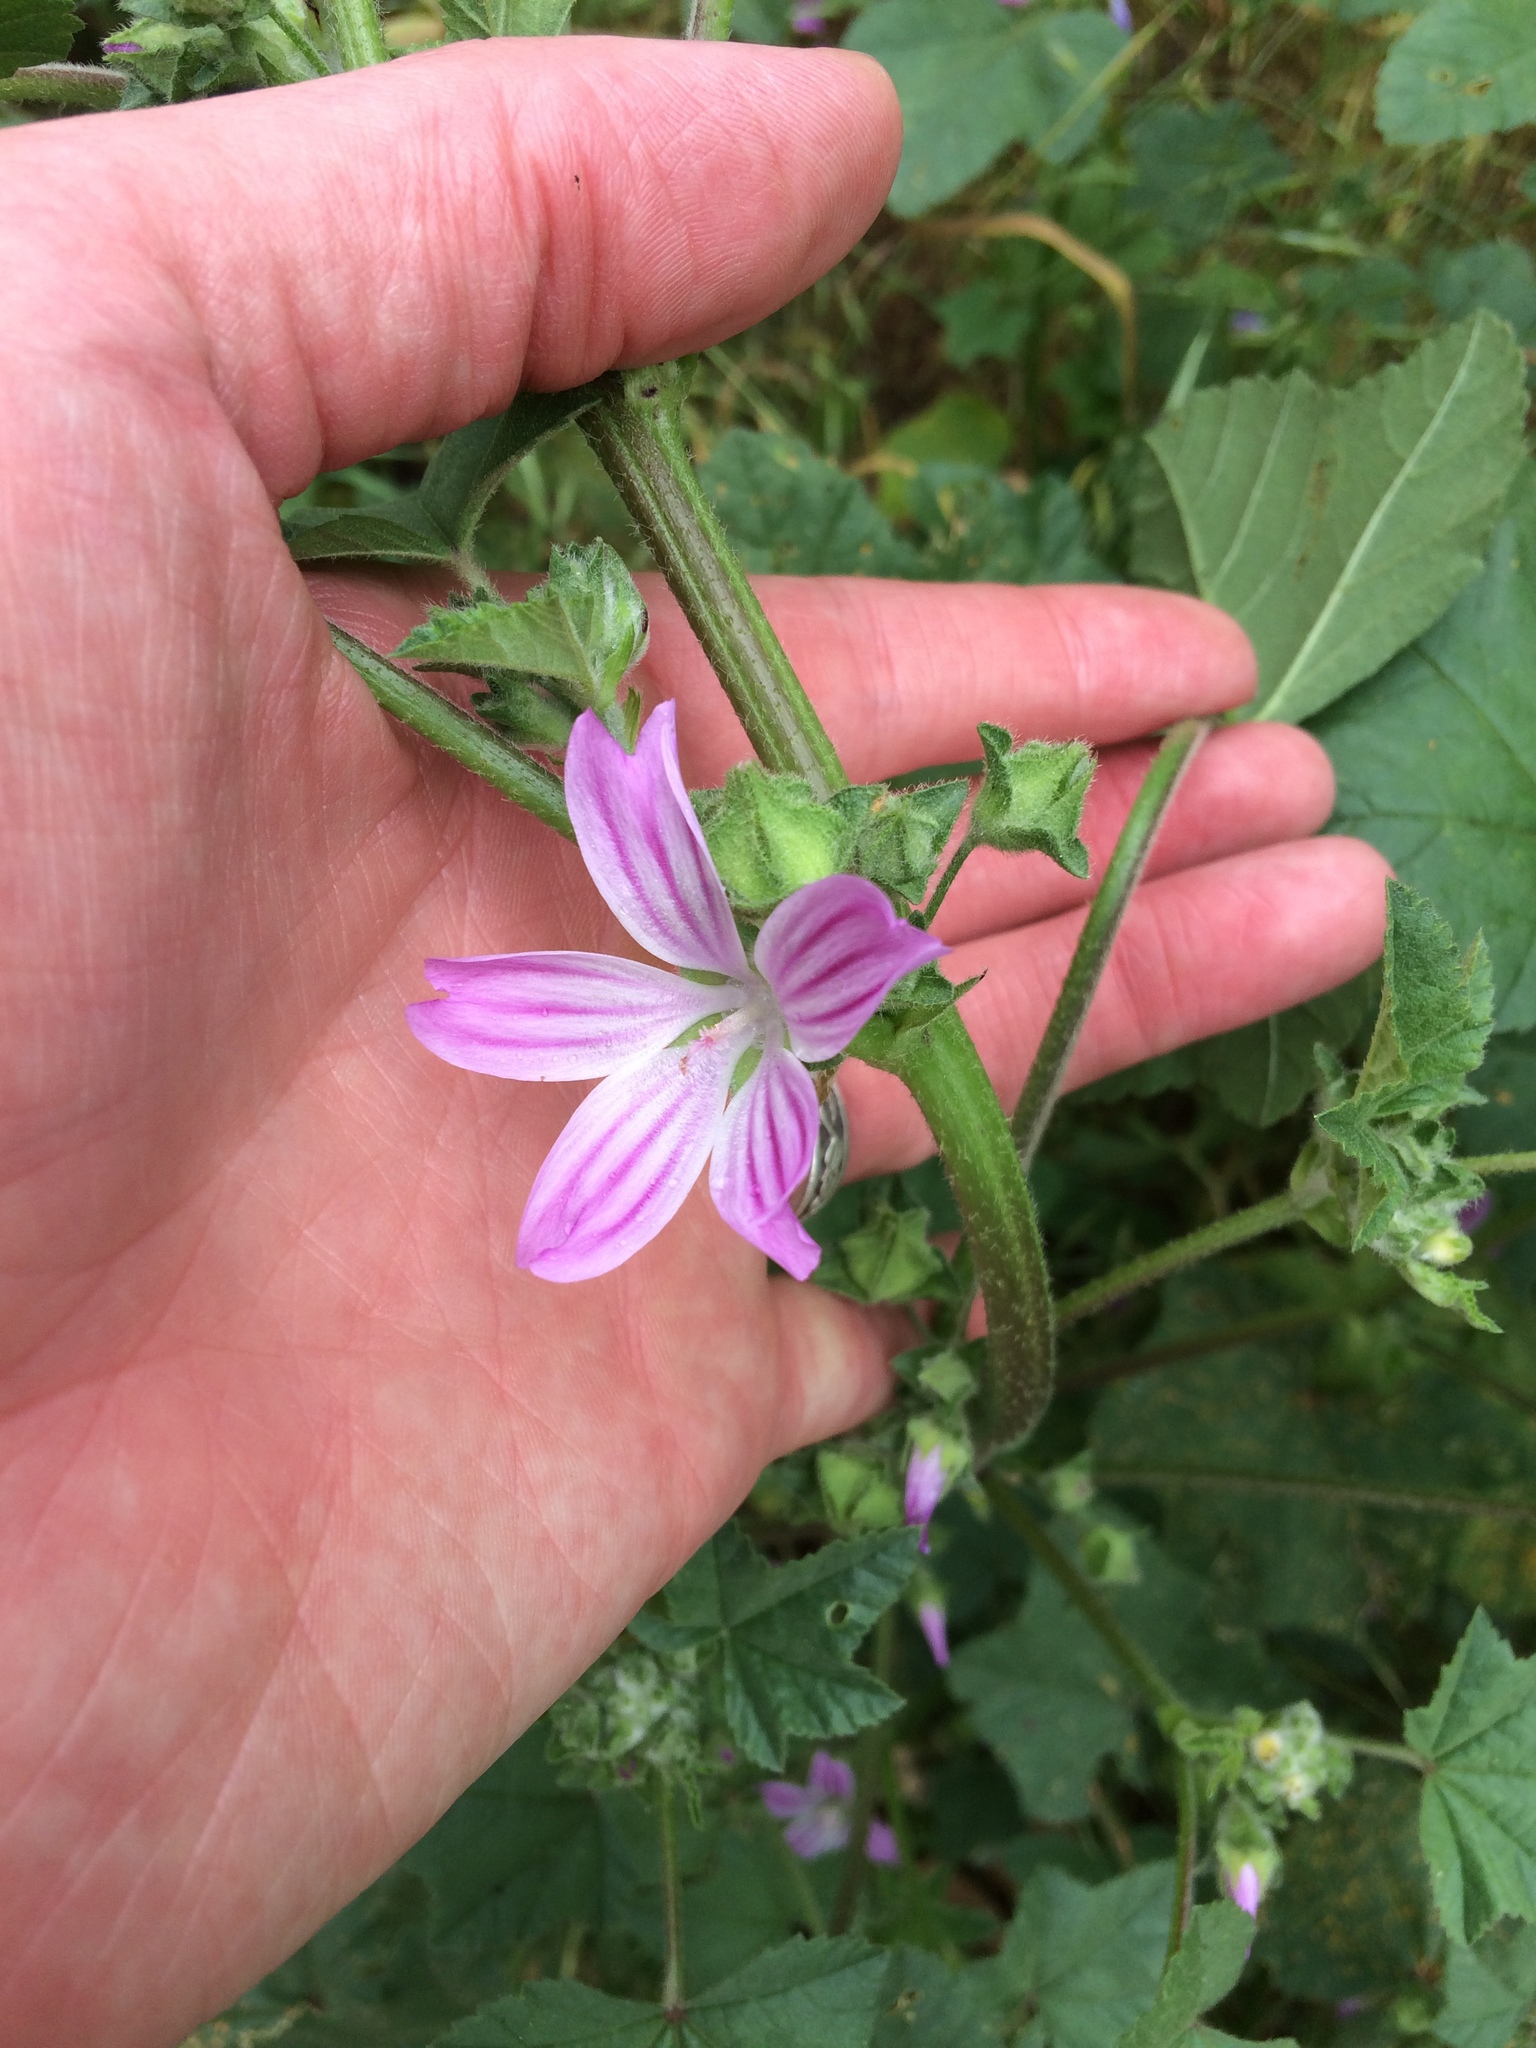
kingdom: Plantae
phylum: Tracheophyta
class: Magnoliopsida
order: Malvales
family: Malvaceae
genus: Malva
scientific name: Malva multiflora
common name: Cheeseweed
